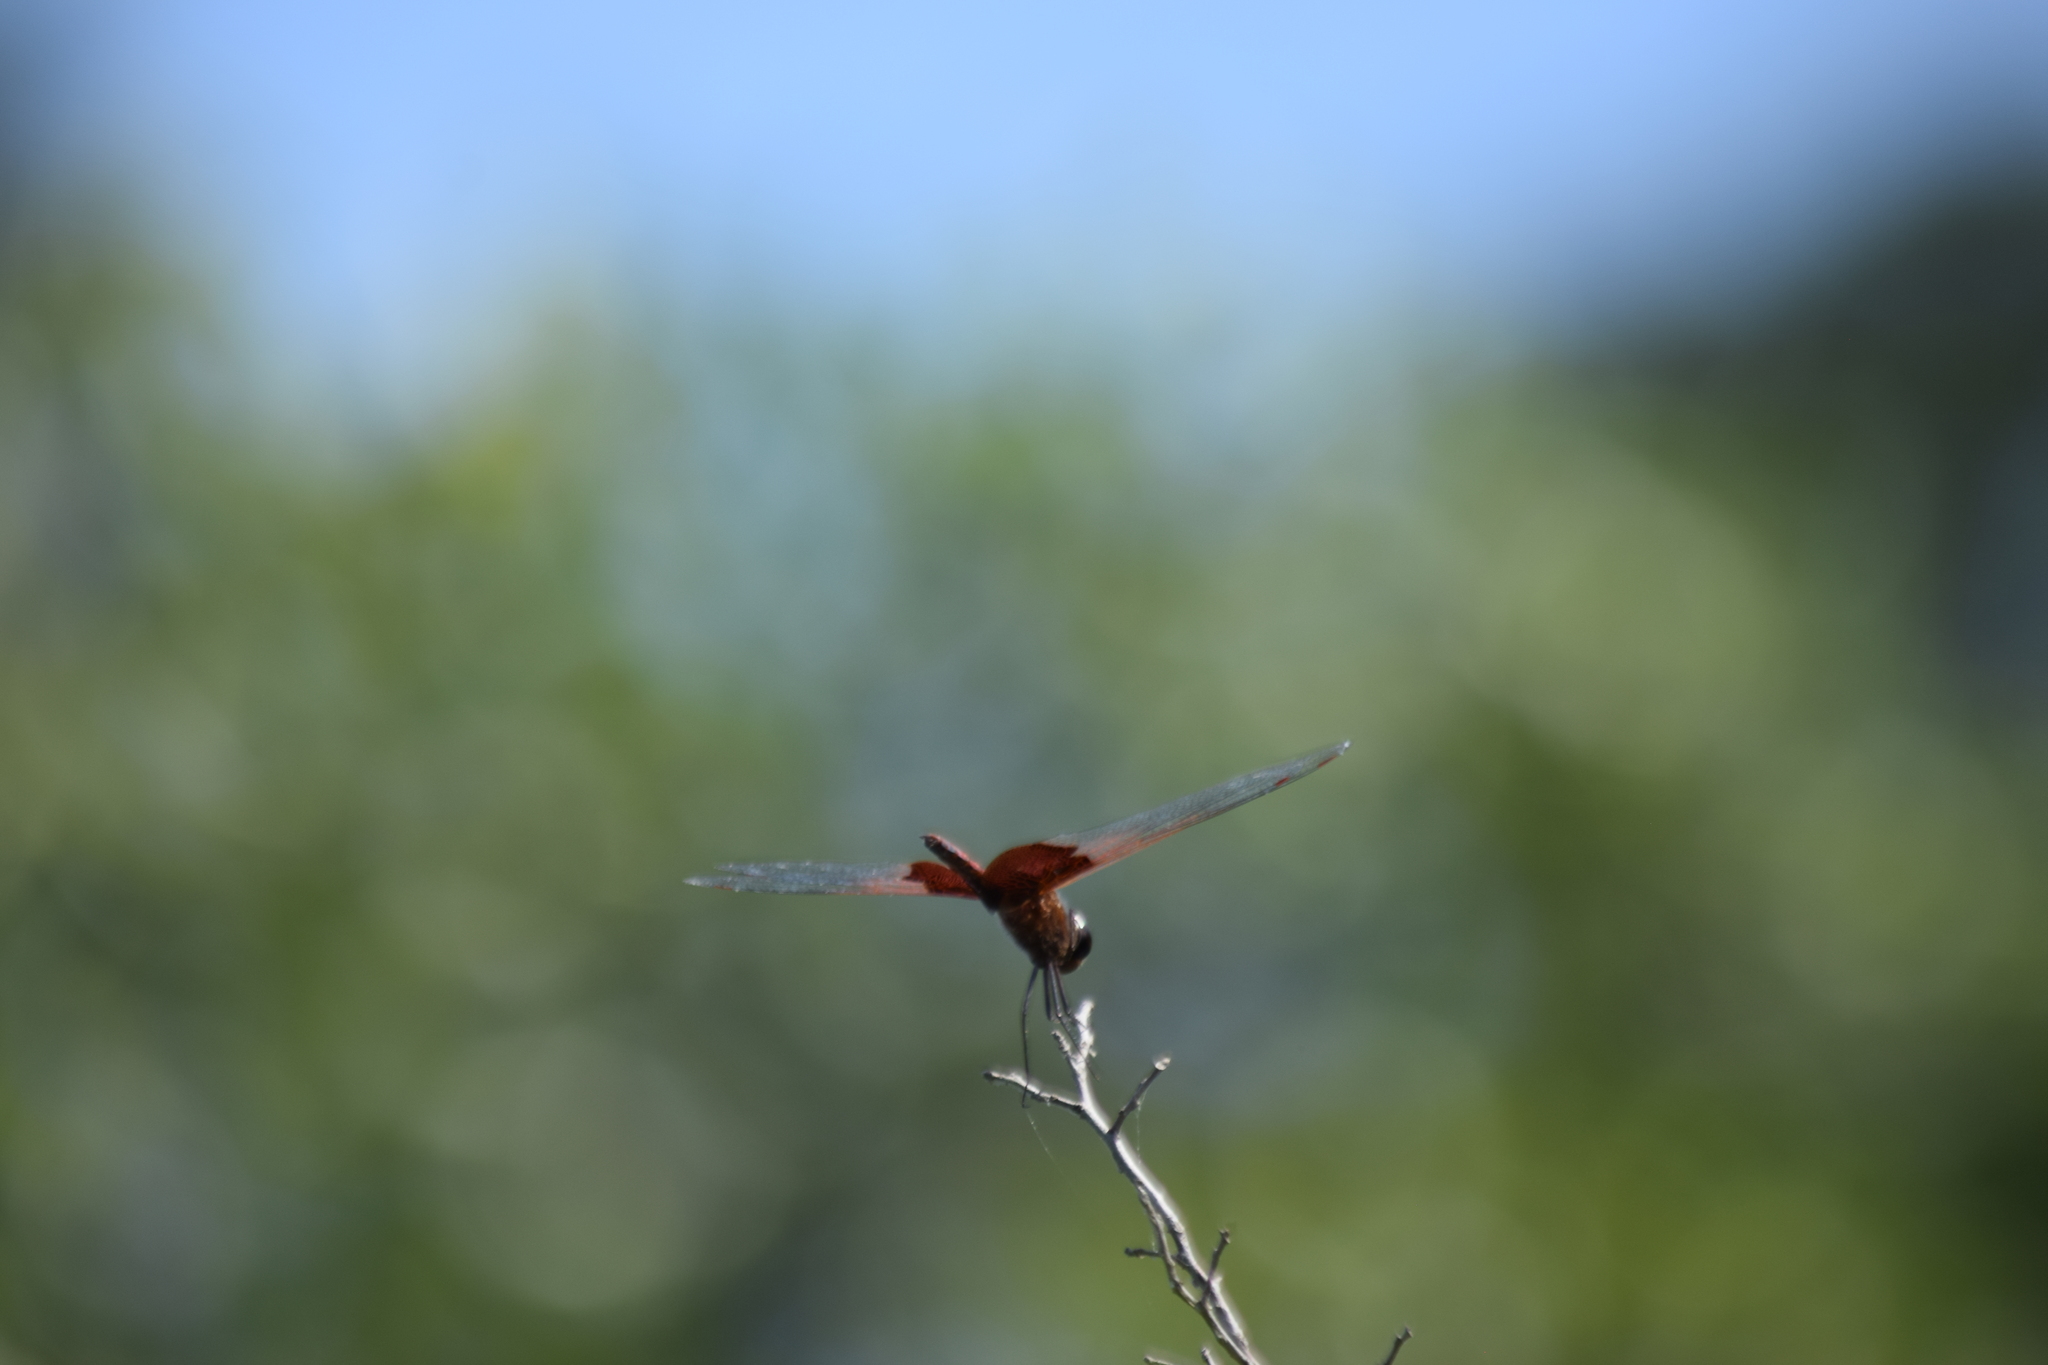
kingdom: Animalia
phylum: Arthropoda
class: Insecta
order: Odonata
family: Libellulidae
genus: Tramea
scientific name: Tramea carolina
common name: Carolina saddlebags
